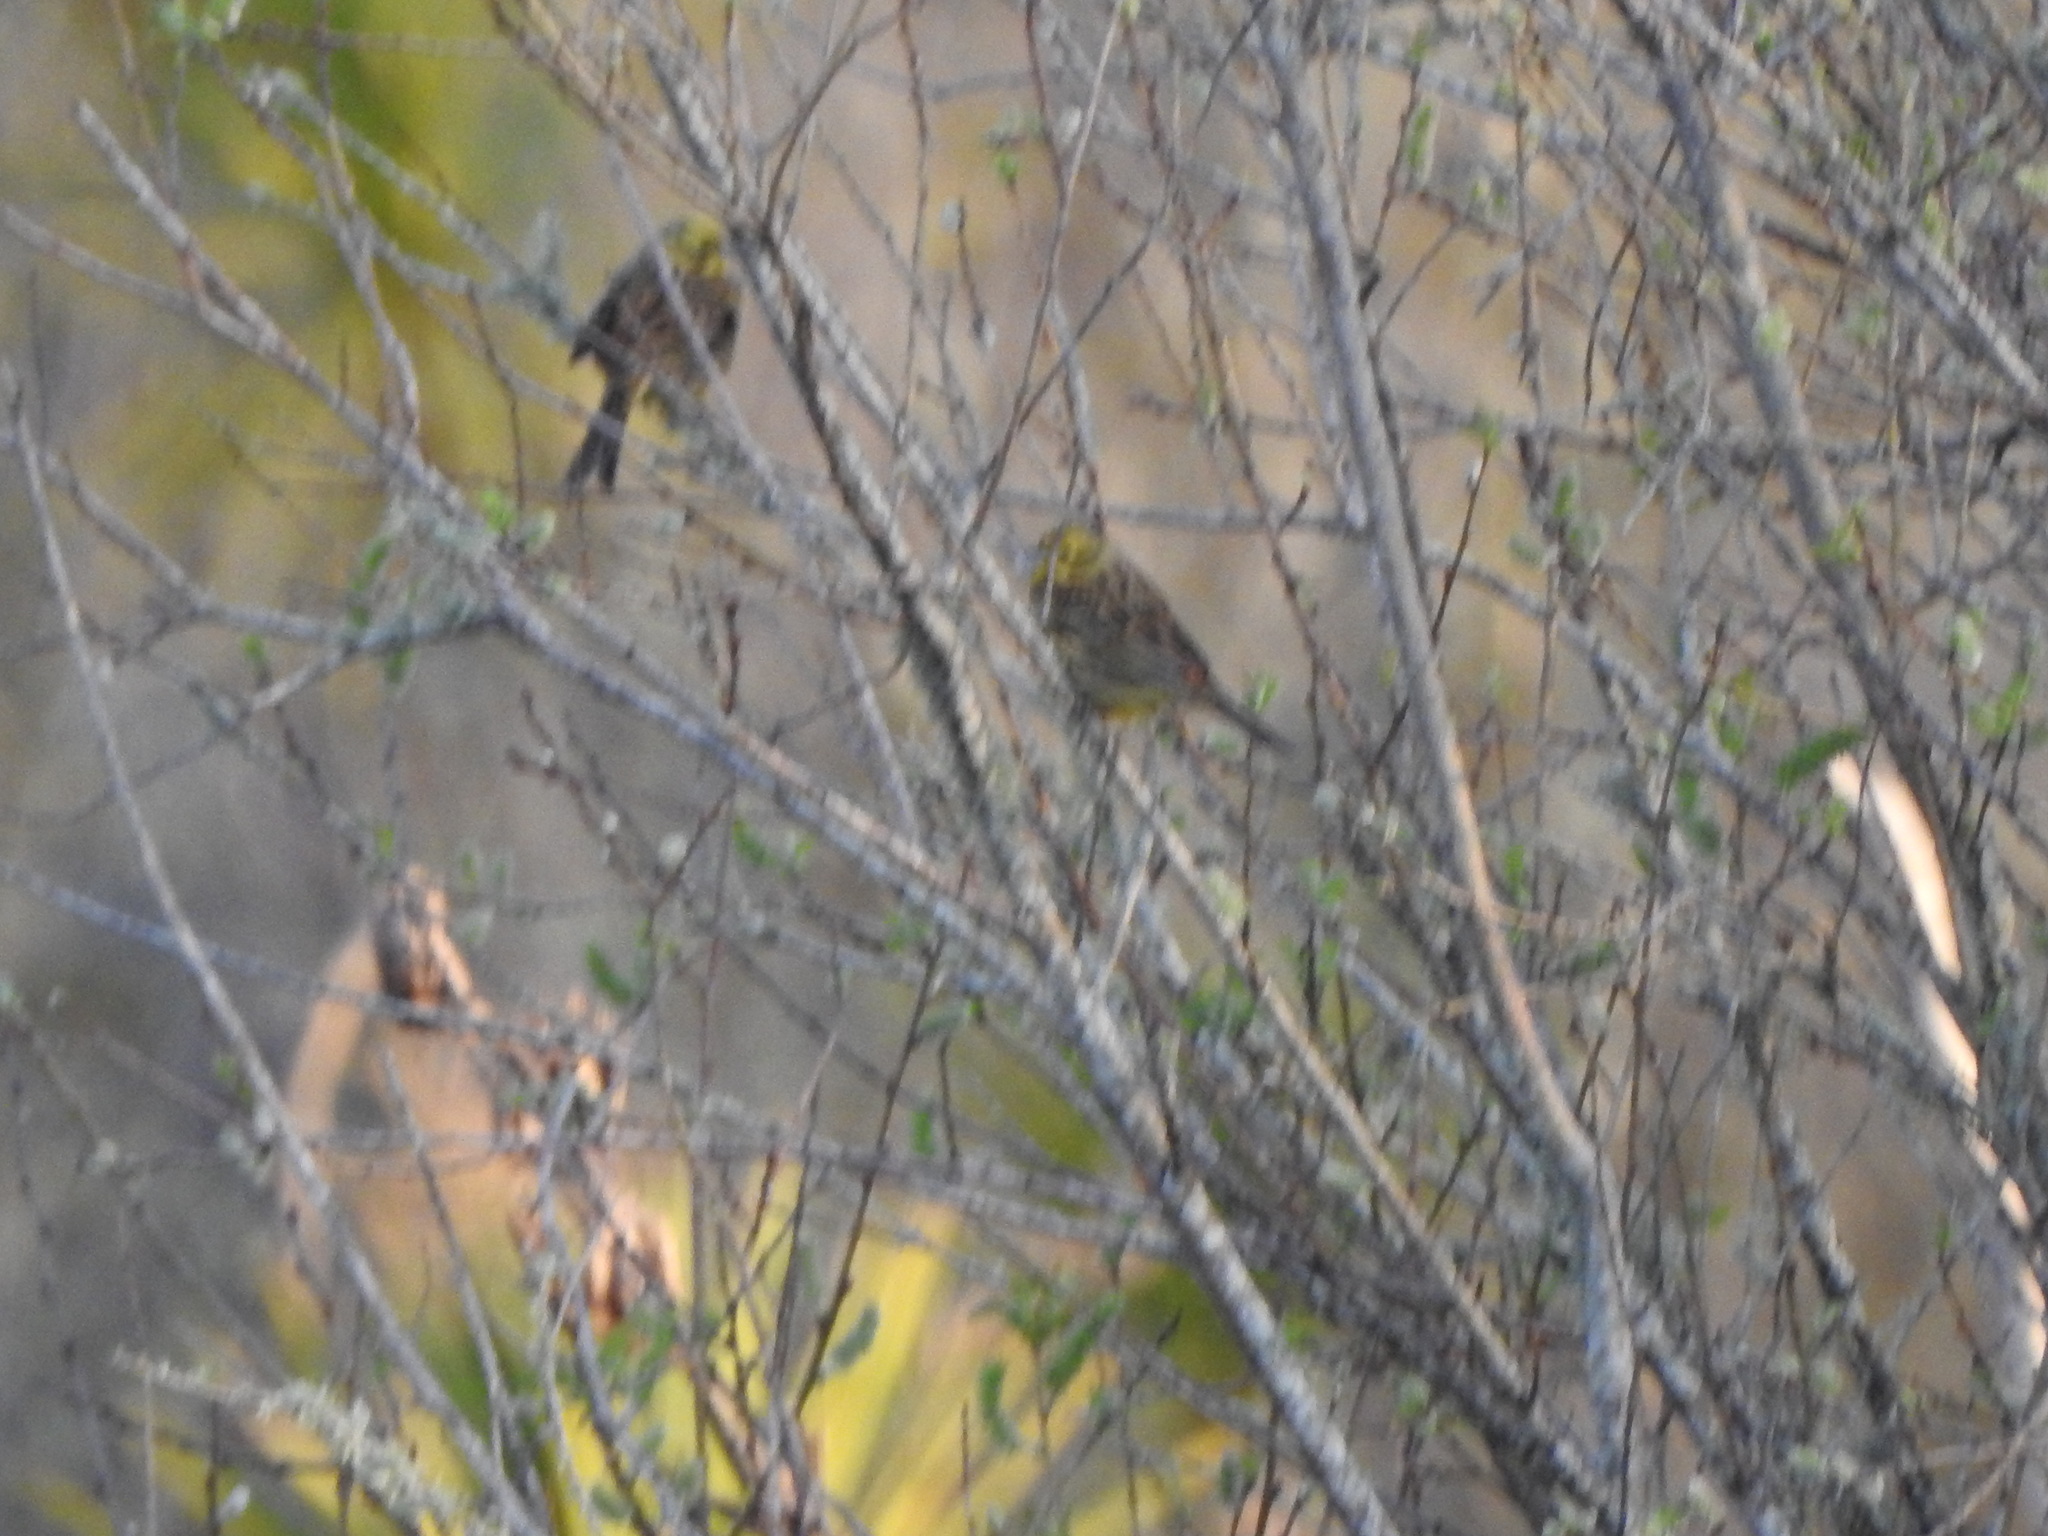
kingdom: Animalia
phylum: Chordata
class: Aves
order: Passeriformes
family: Emberizidae
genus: Emberiza
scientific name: Emberiza citrinella
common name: Yellowhammer
